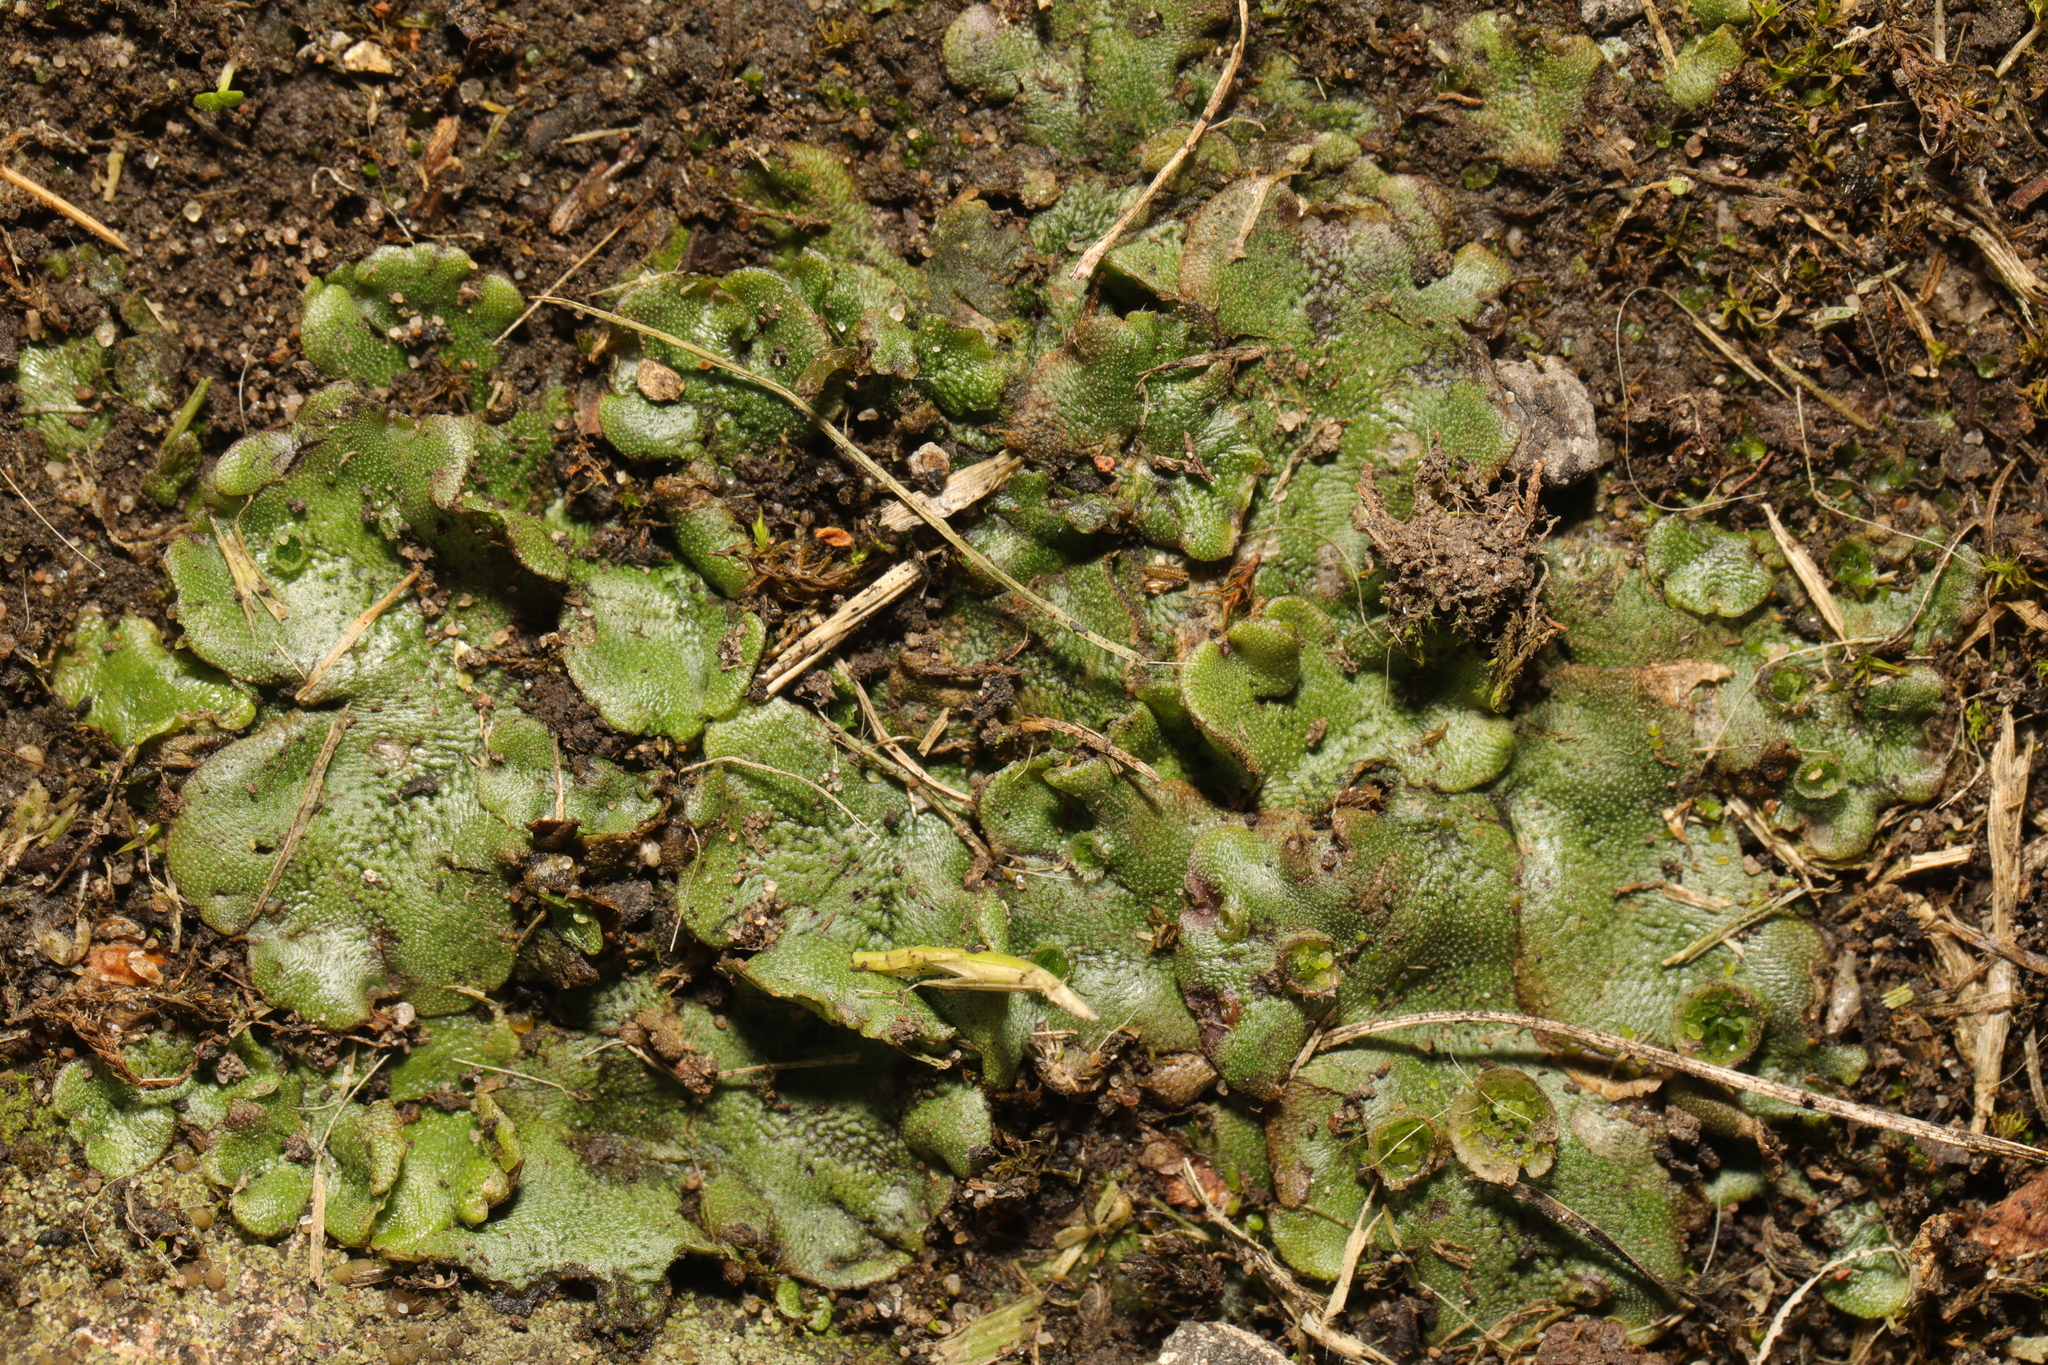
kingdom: Plantae
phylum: Marchantiophyta
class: Marchantiopsida
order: Marchantiales
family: Marchantiaceae
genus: Marchantia
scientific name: Marchantia polymorpha
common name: Common liverwort
